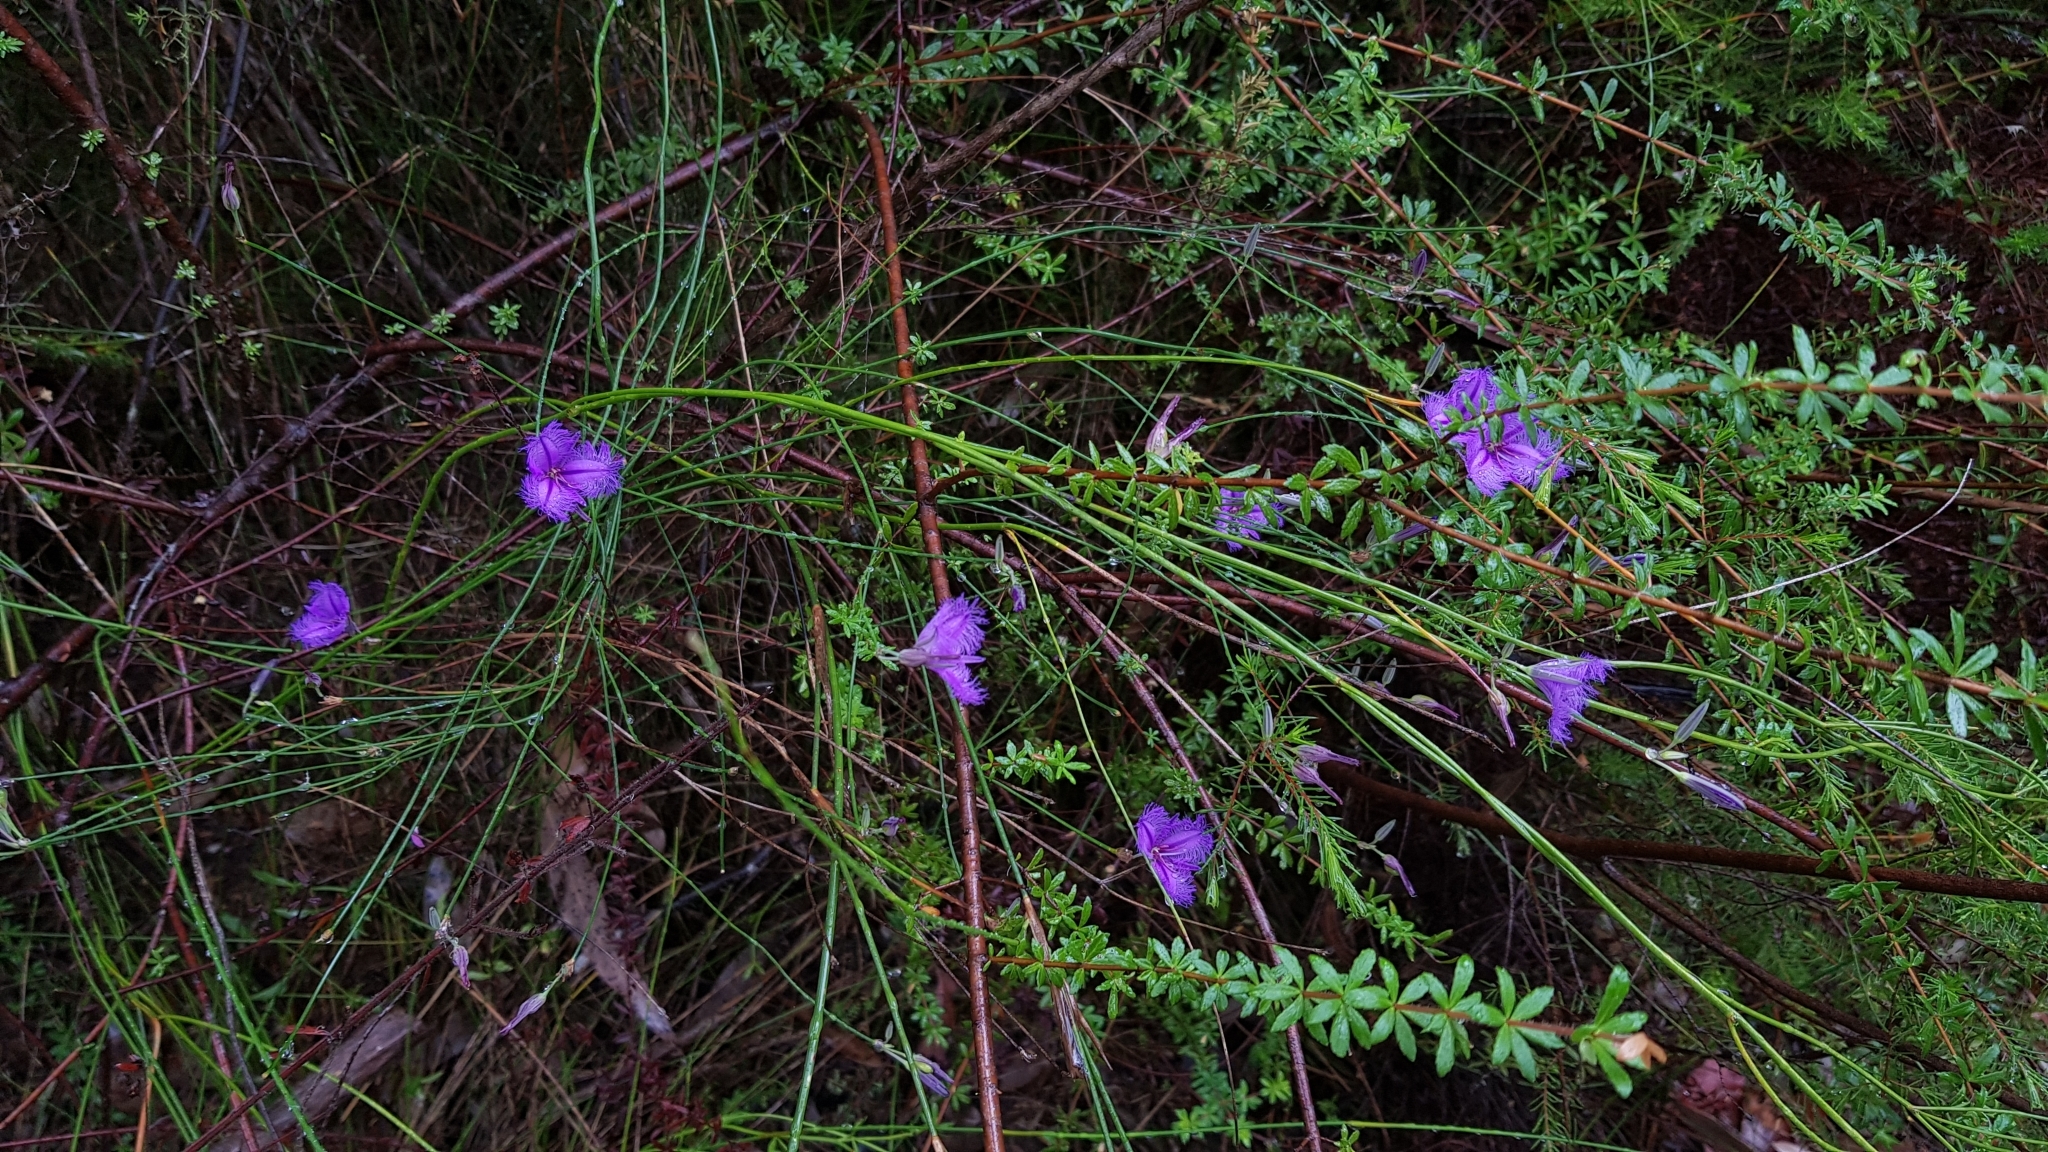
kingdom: Plantae
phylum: Tracheophyta
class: Liliopsida
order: Asparagales
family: Asparagaceae
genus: Thysanotus
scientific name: Thysanotus tuberosus
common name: Common fringed-lily
